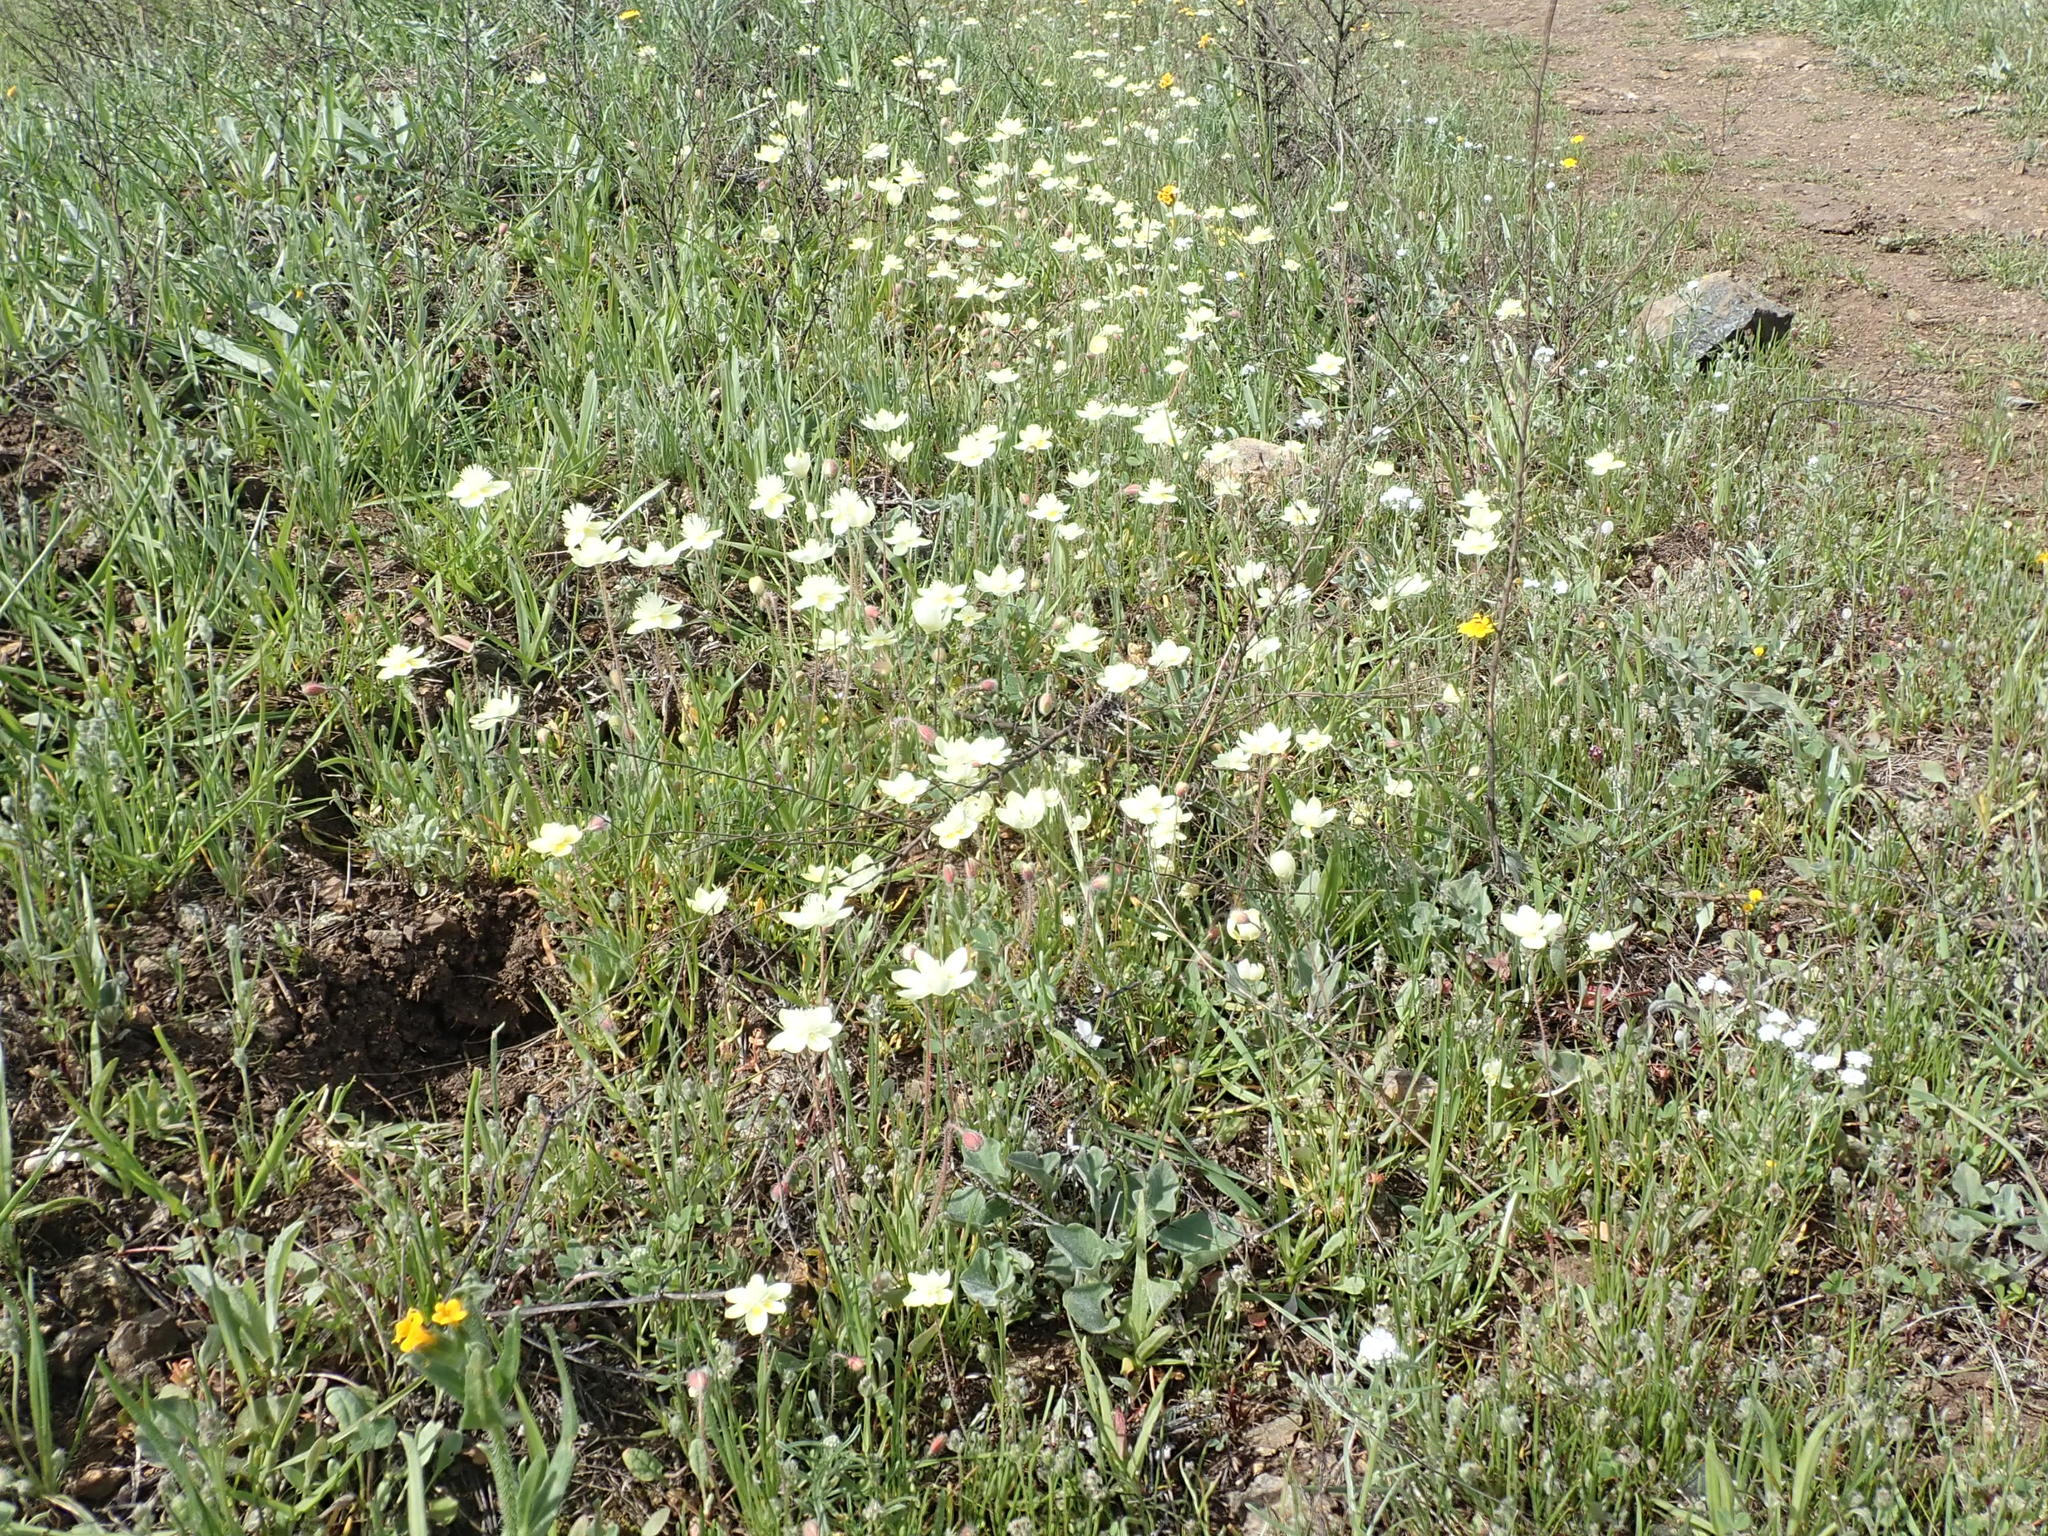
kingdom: Plantae
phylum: Tracheophyta
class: Magnoliopsida
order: Ranunculales
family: Papaveraceae
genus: Platystemon
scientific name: Platystemon californicus
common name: Cream-cups
